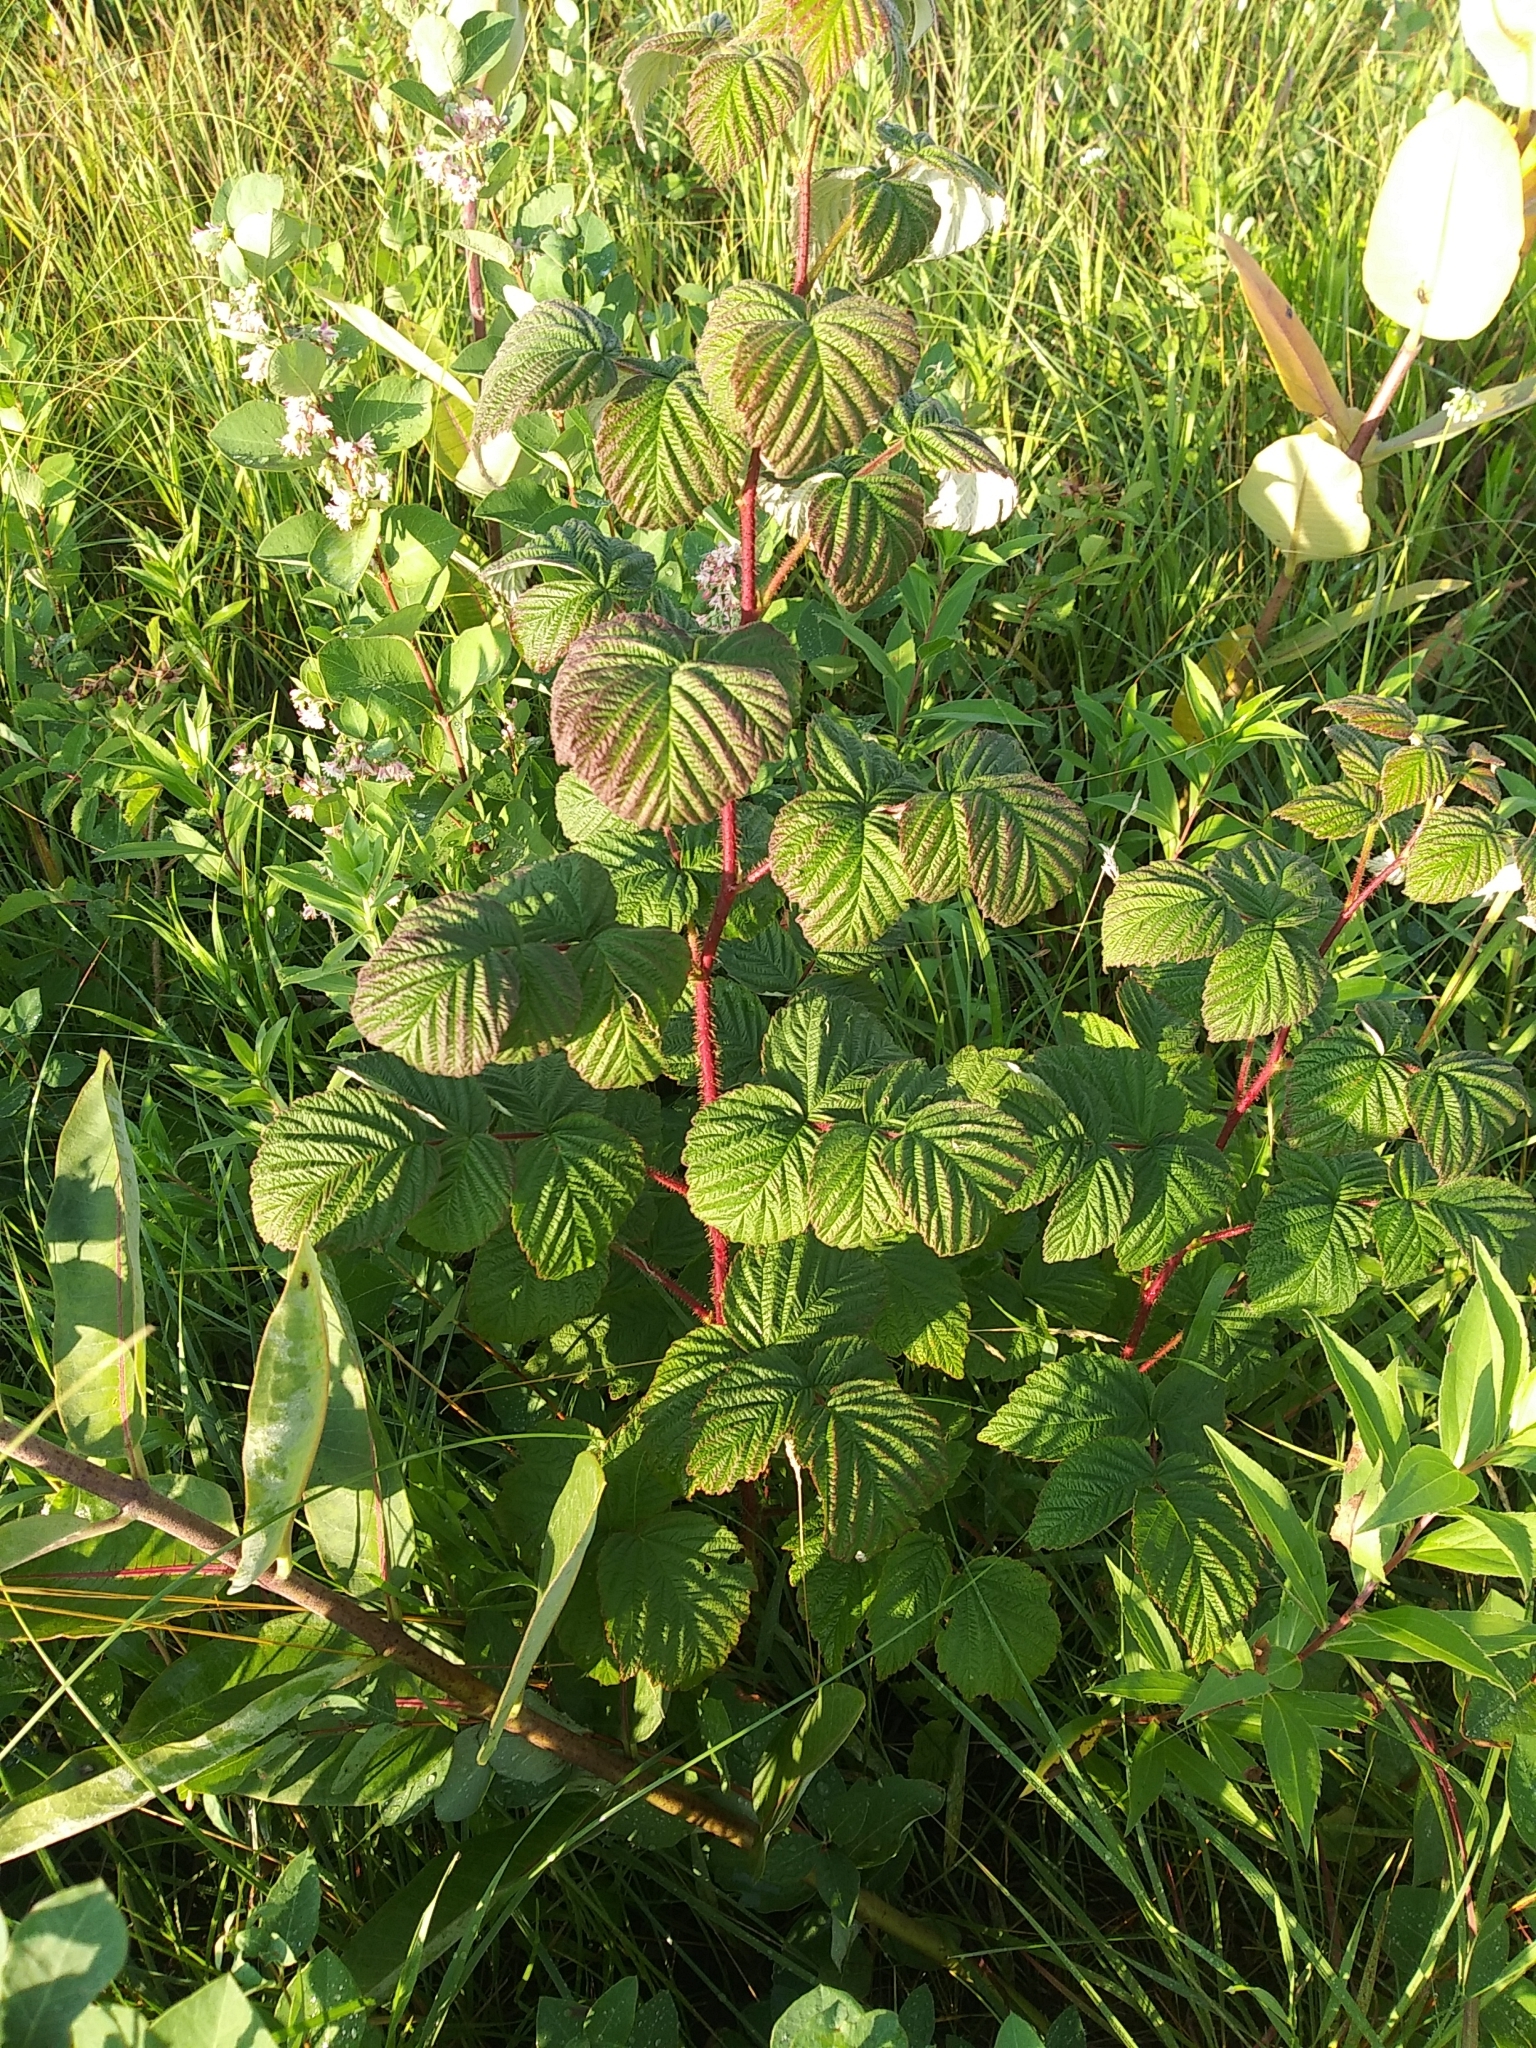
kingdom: Plantae
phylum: Tracheophyta
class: Magnoliopsida
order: Rosales
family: Rosaceae
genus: Rubus
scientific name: Rubus idaeus
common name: Raspberry
